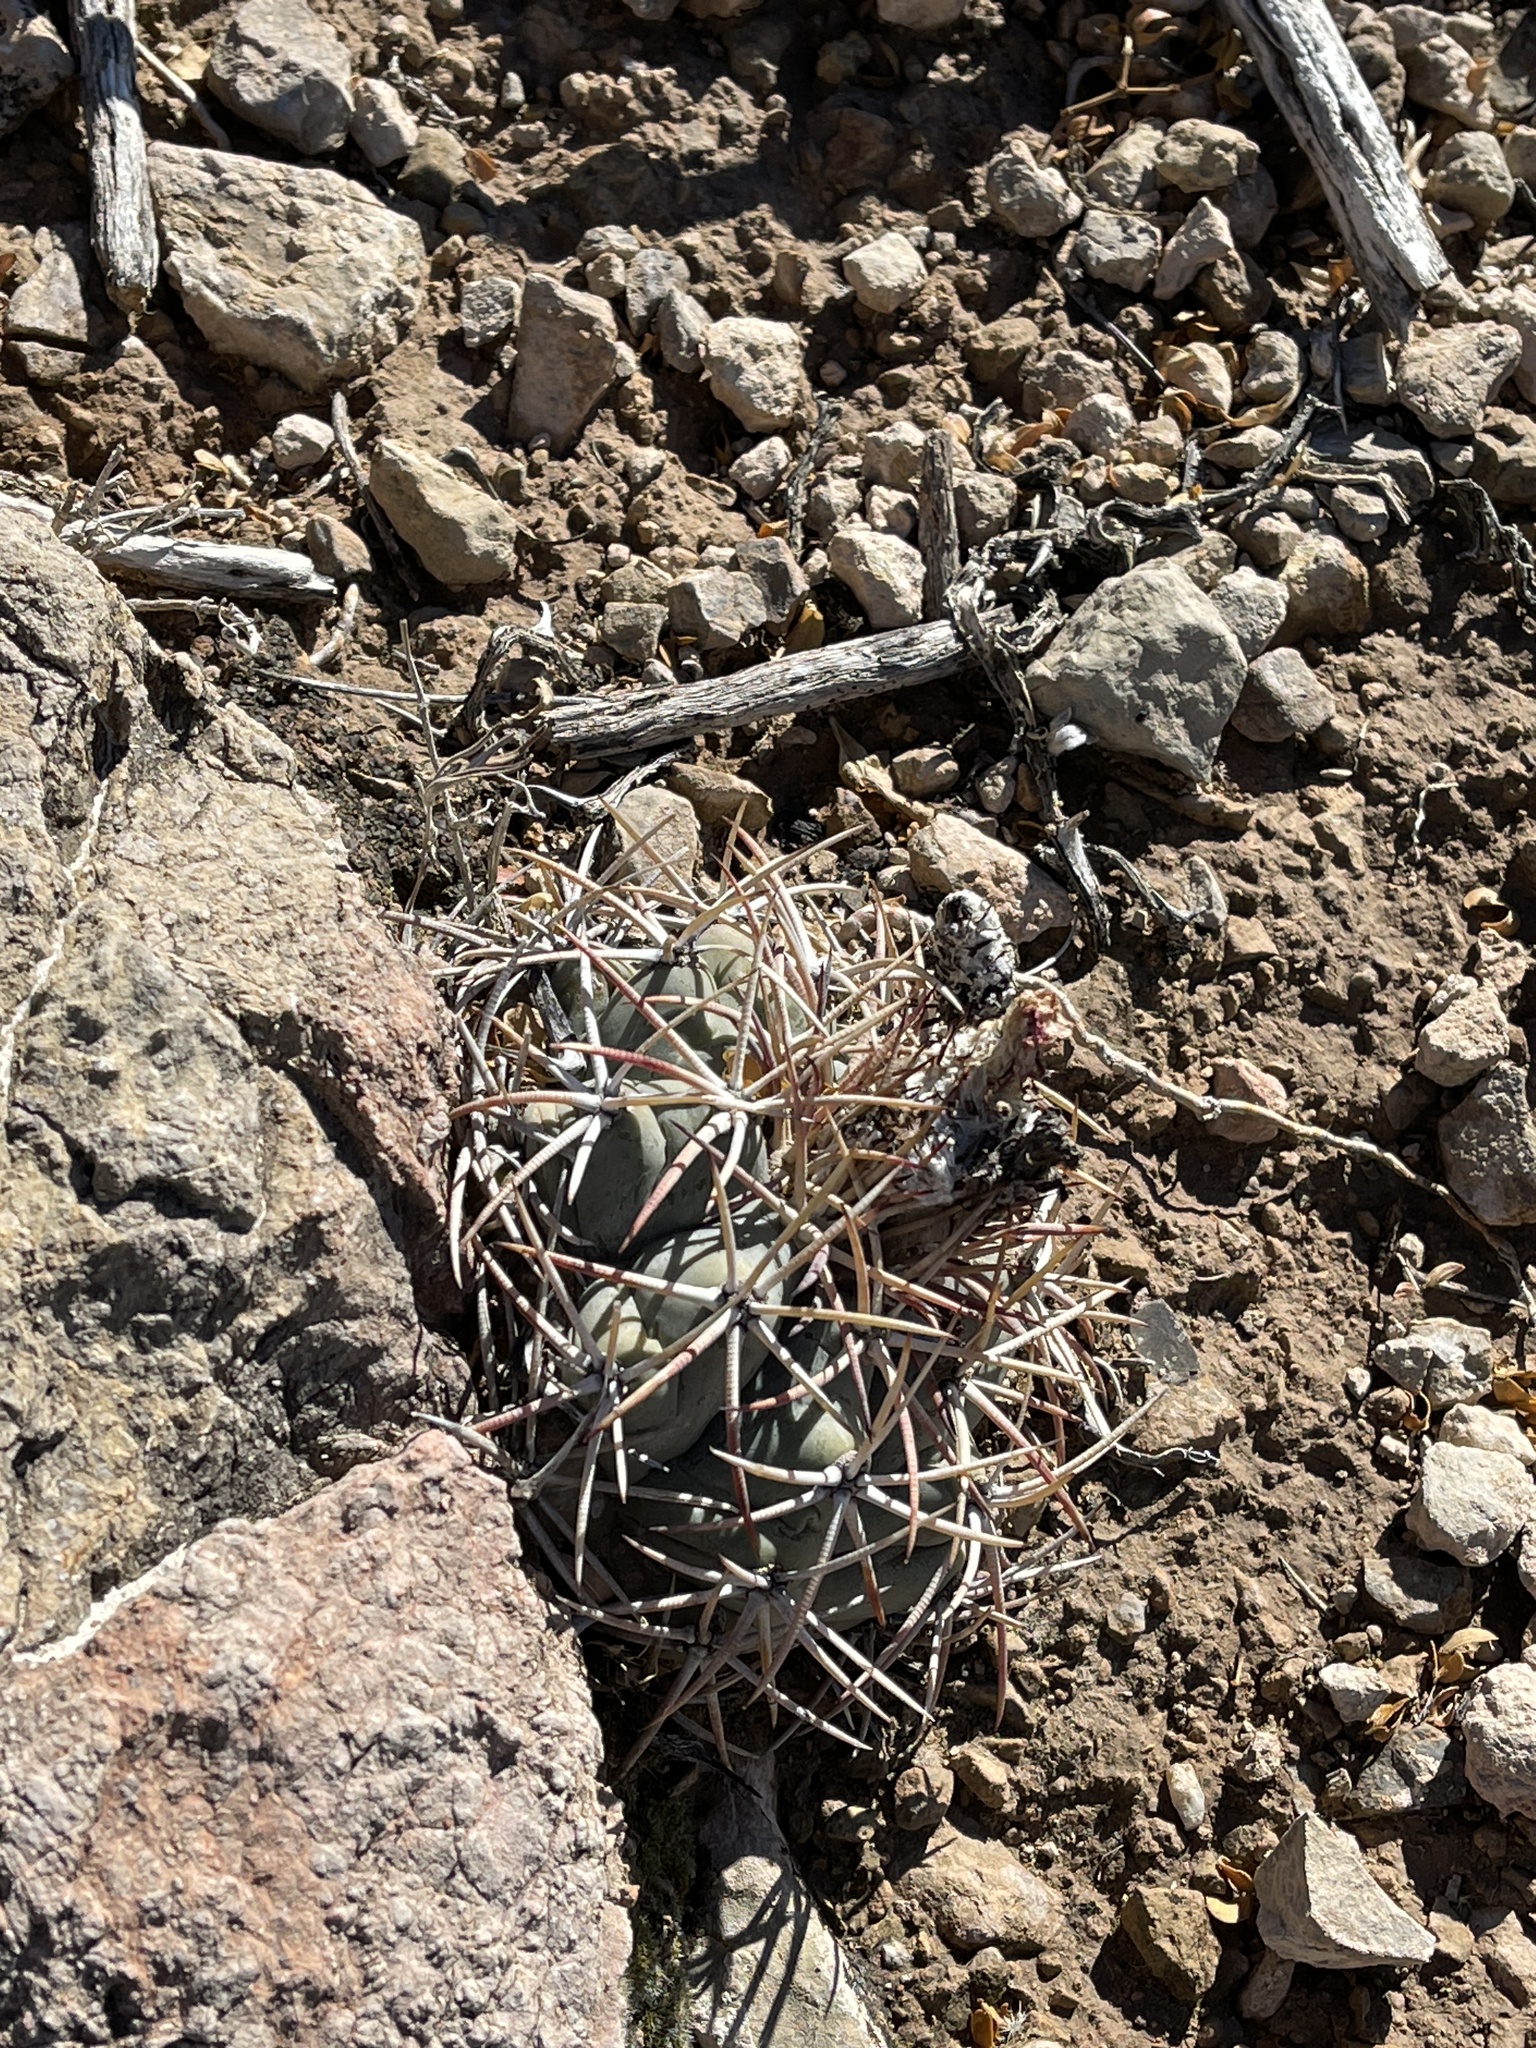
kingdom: Plantae
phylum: Tracheophyta
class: Magnoliopsida
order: Caryophyllales
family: Cactaceae
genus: Echinocactus
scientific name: Echinocactus horizonthalonius
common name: Devilshead
